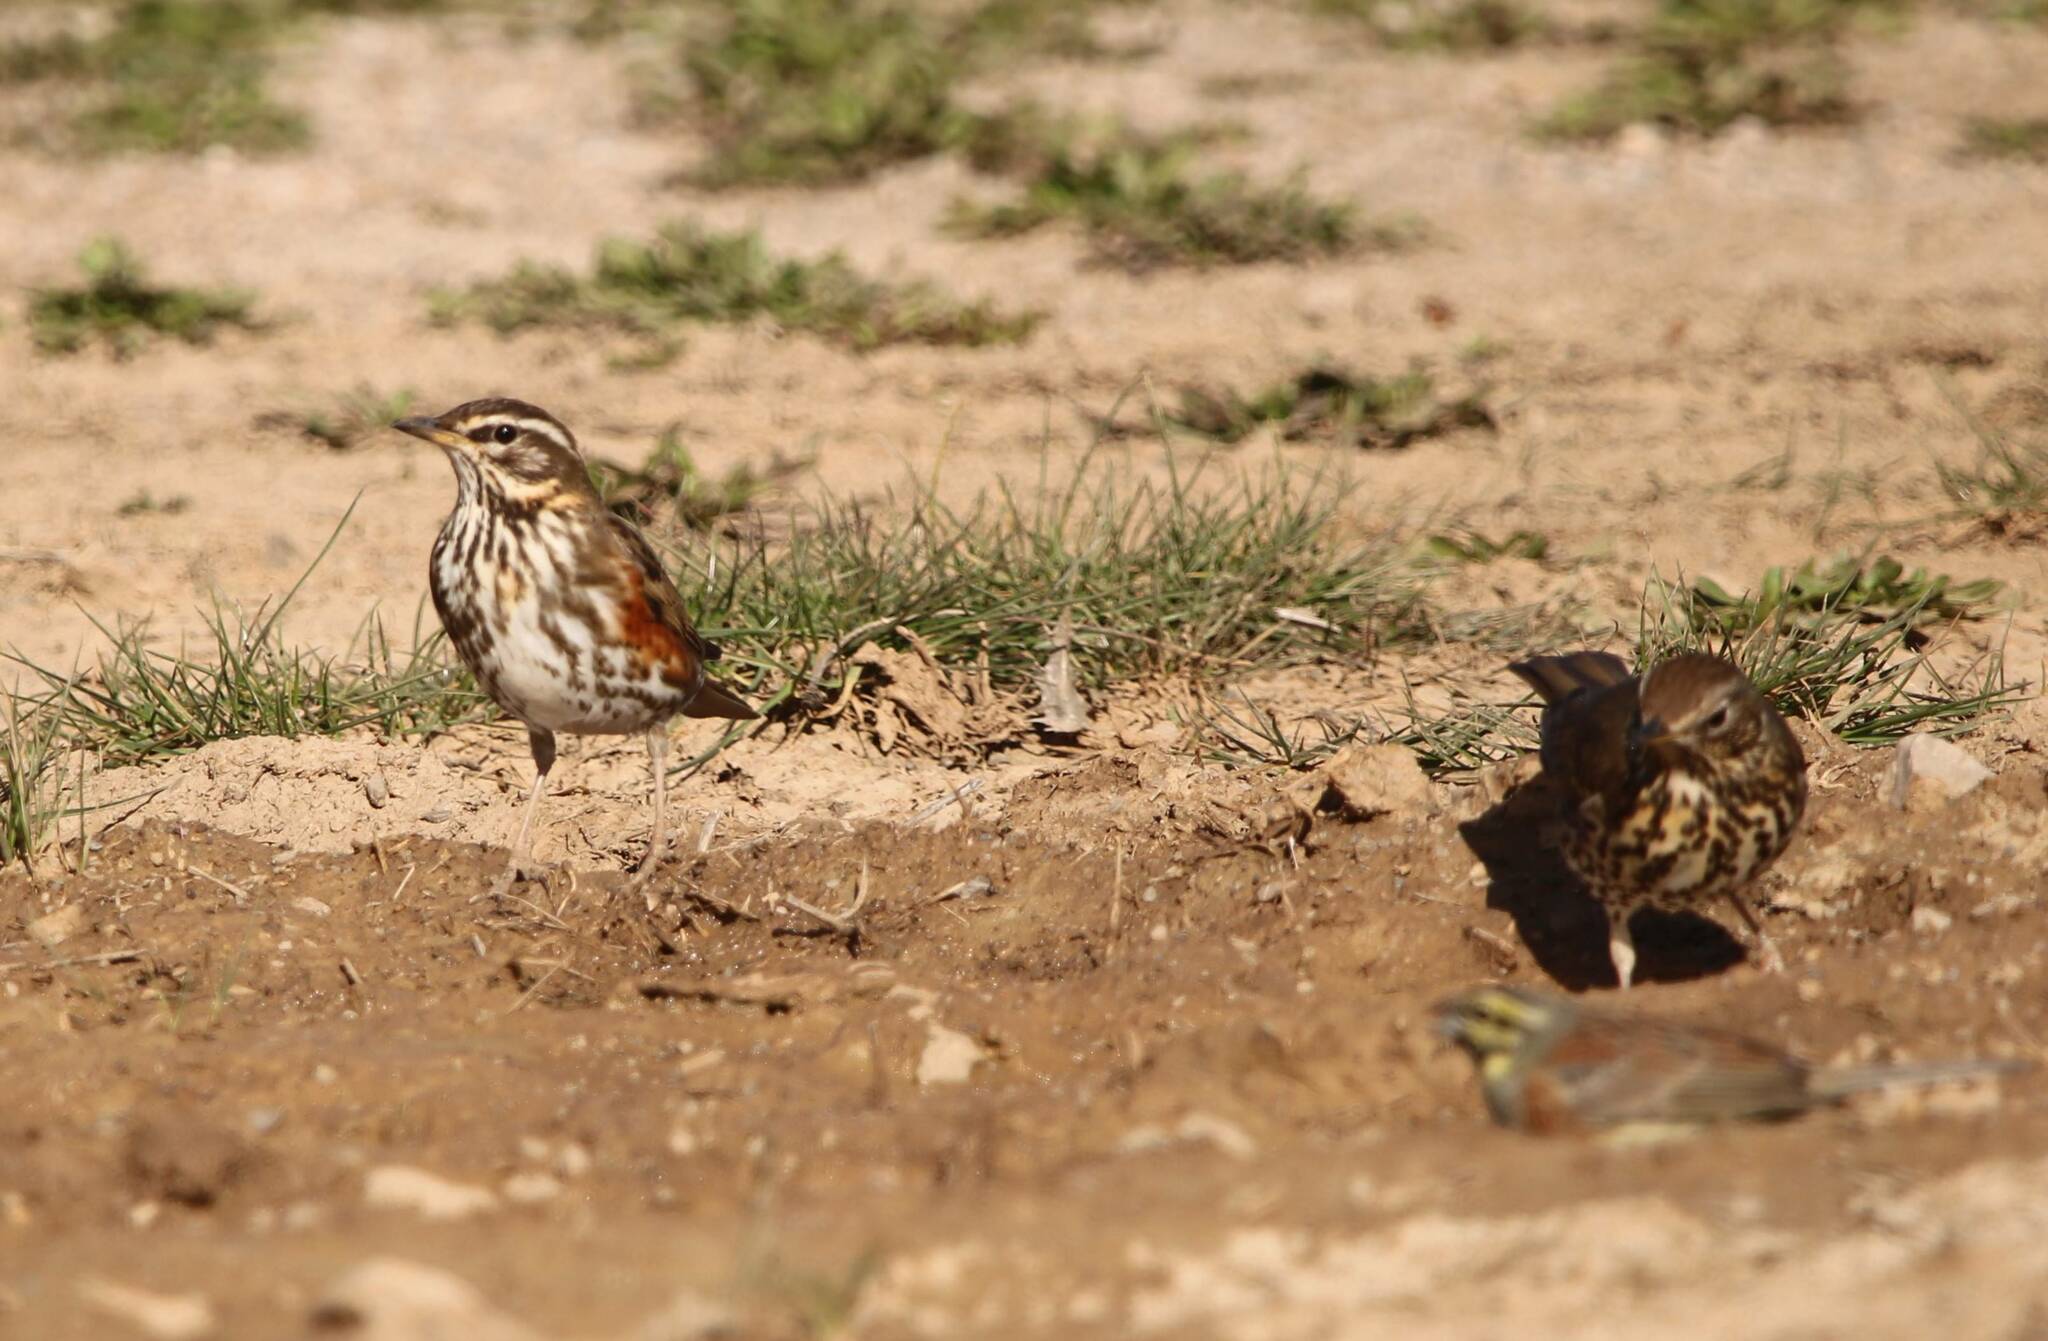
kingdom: Animalia
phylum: Chordata
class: Aves
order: Passeriformes
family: Turdidae
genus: Turdus
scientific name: Turdus iliacus
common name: Redwing
